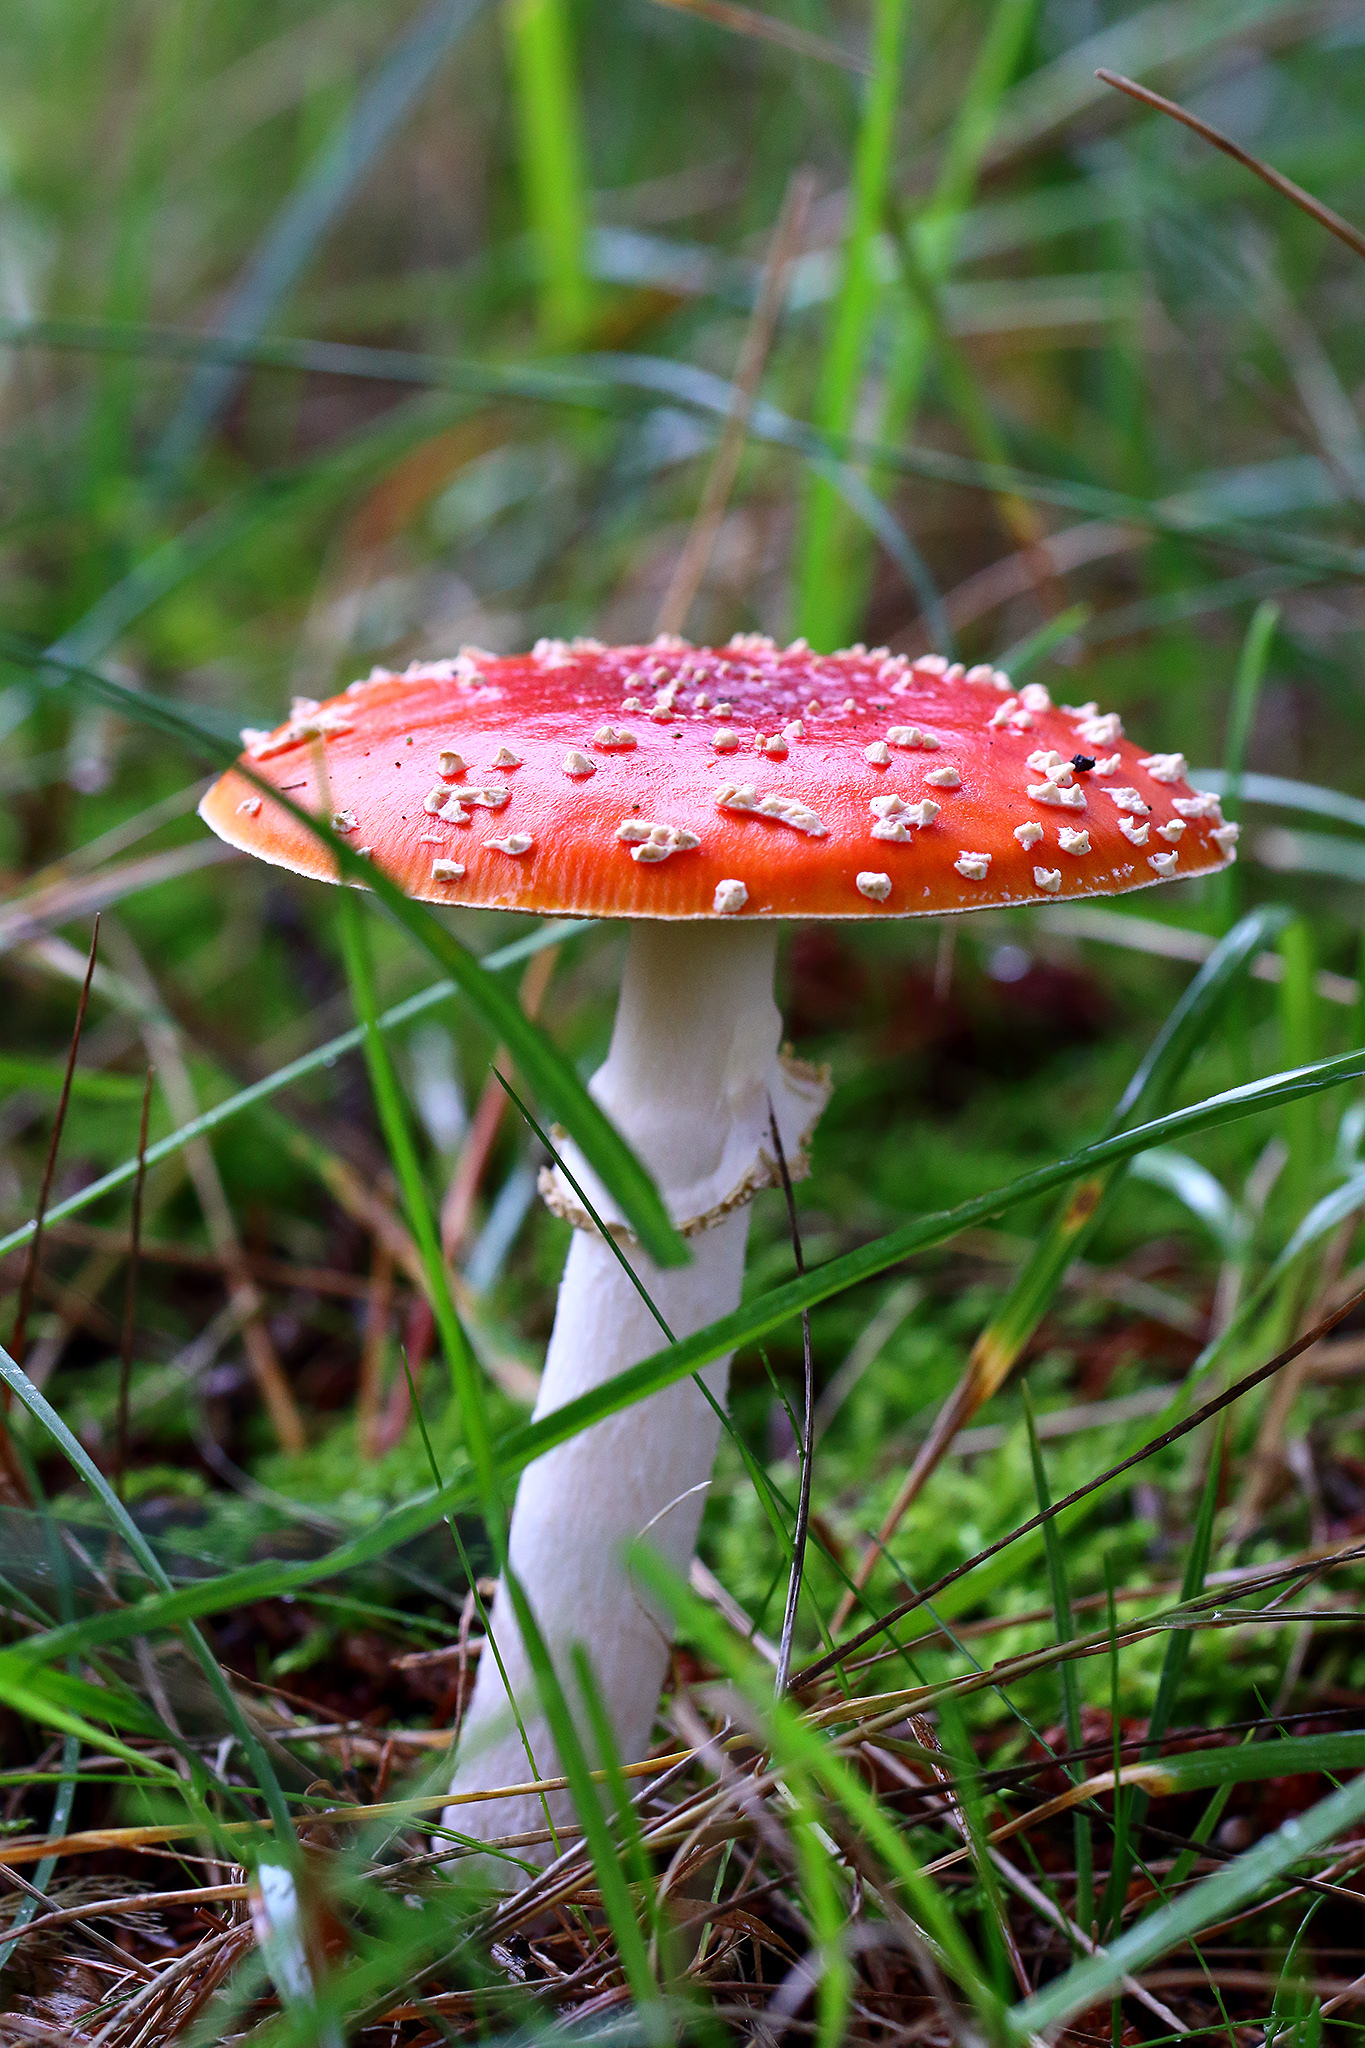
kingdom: Fungi
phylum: Basidiomycota
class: Agaricomycetes
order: Agaricales
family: Amanitaceae
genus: Amanita
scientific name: Amanita muscaria
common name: Fly agaric
